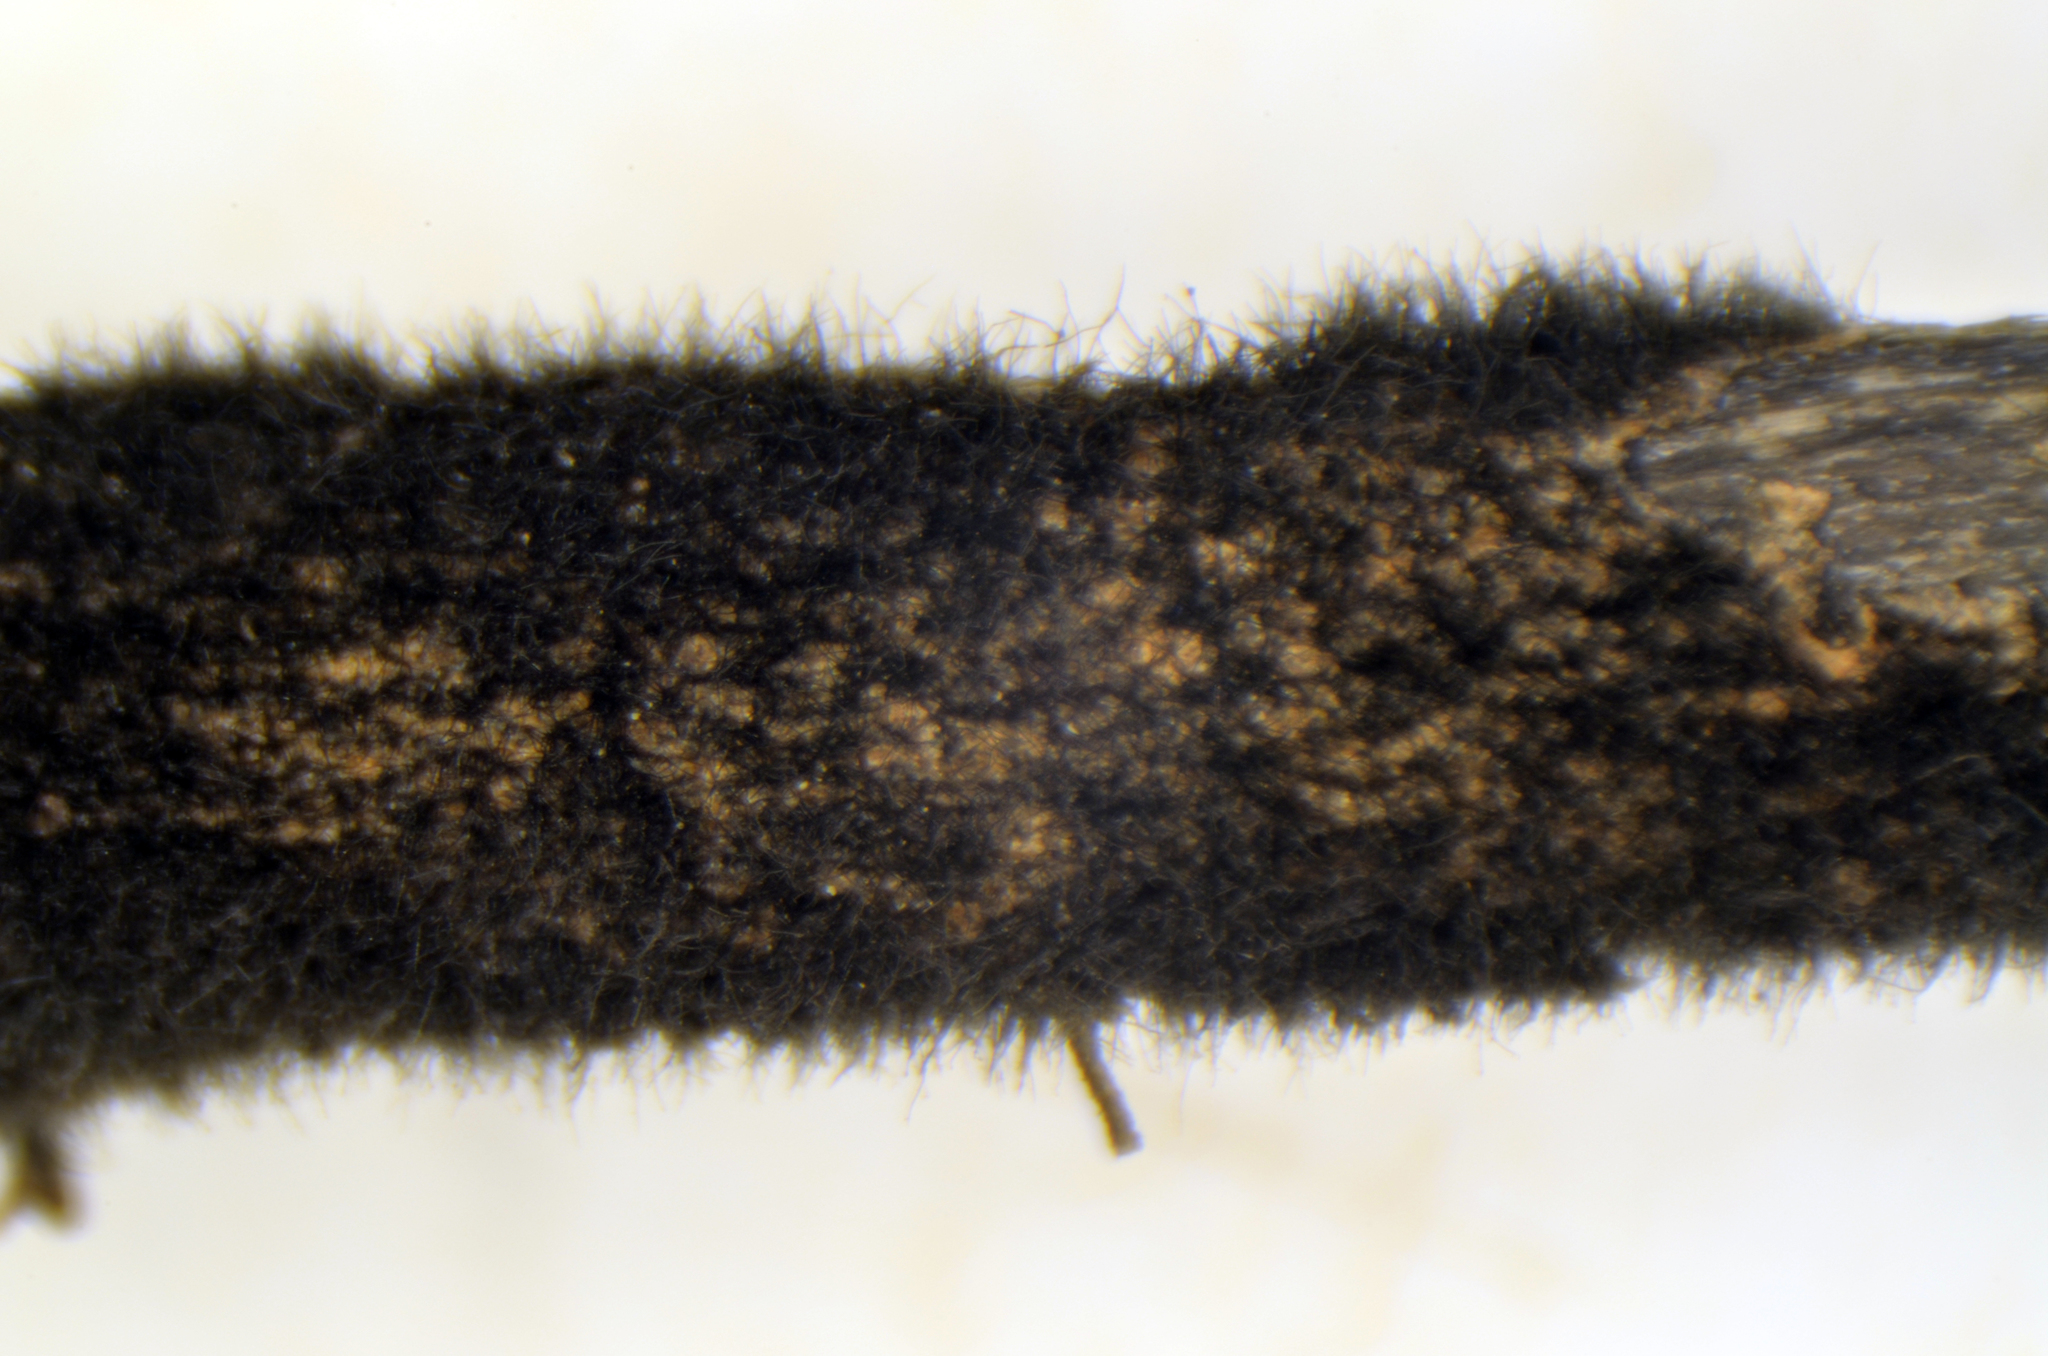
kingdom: Fungi
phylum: Ascomycota
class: Dothideomycetes
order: Pleosporales
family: Massarinaceae
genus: Helminthosporium
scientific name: Helminthosporium solani
